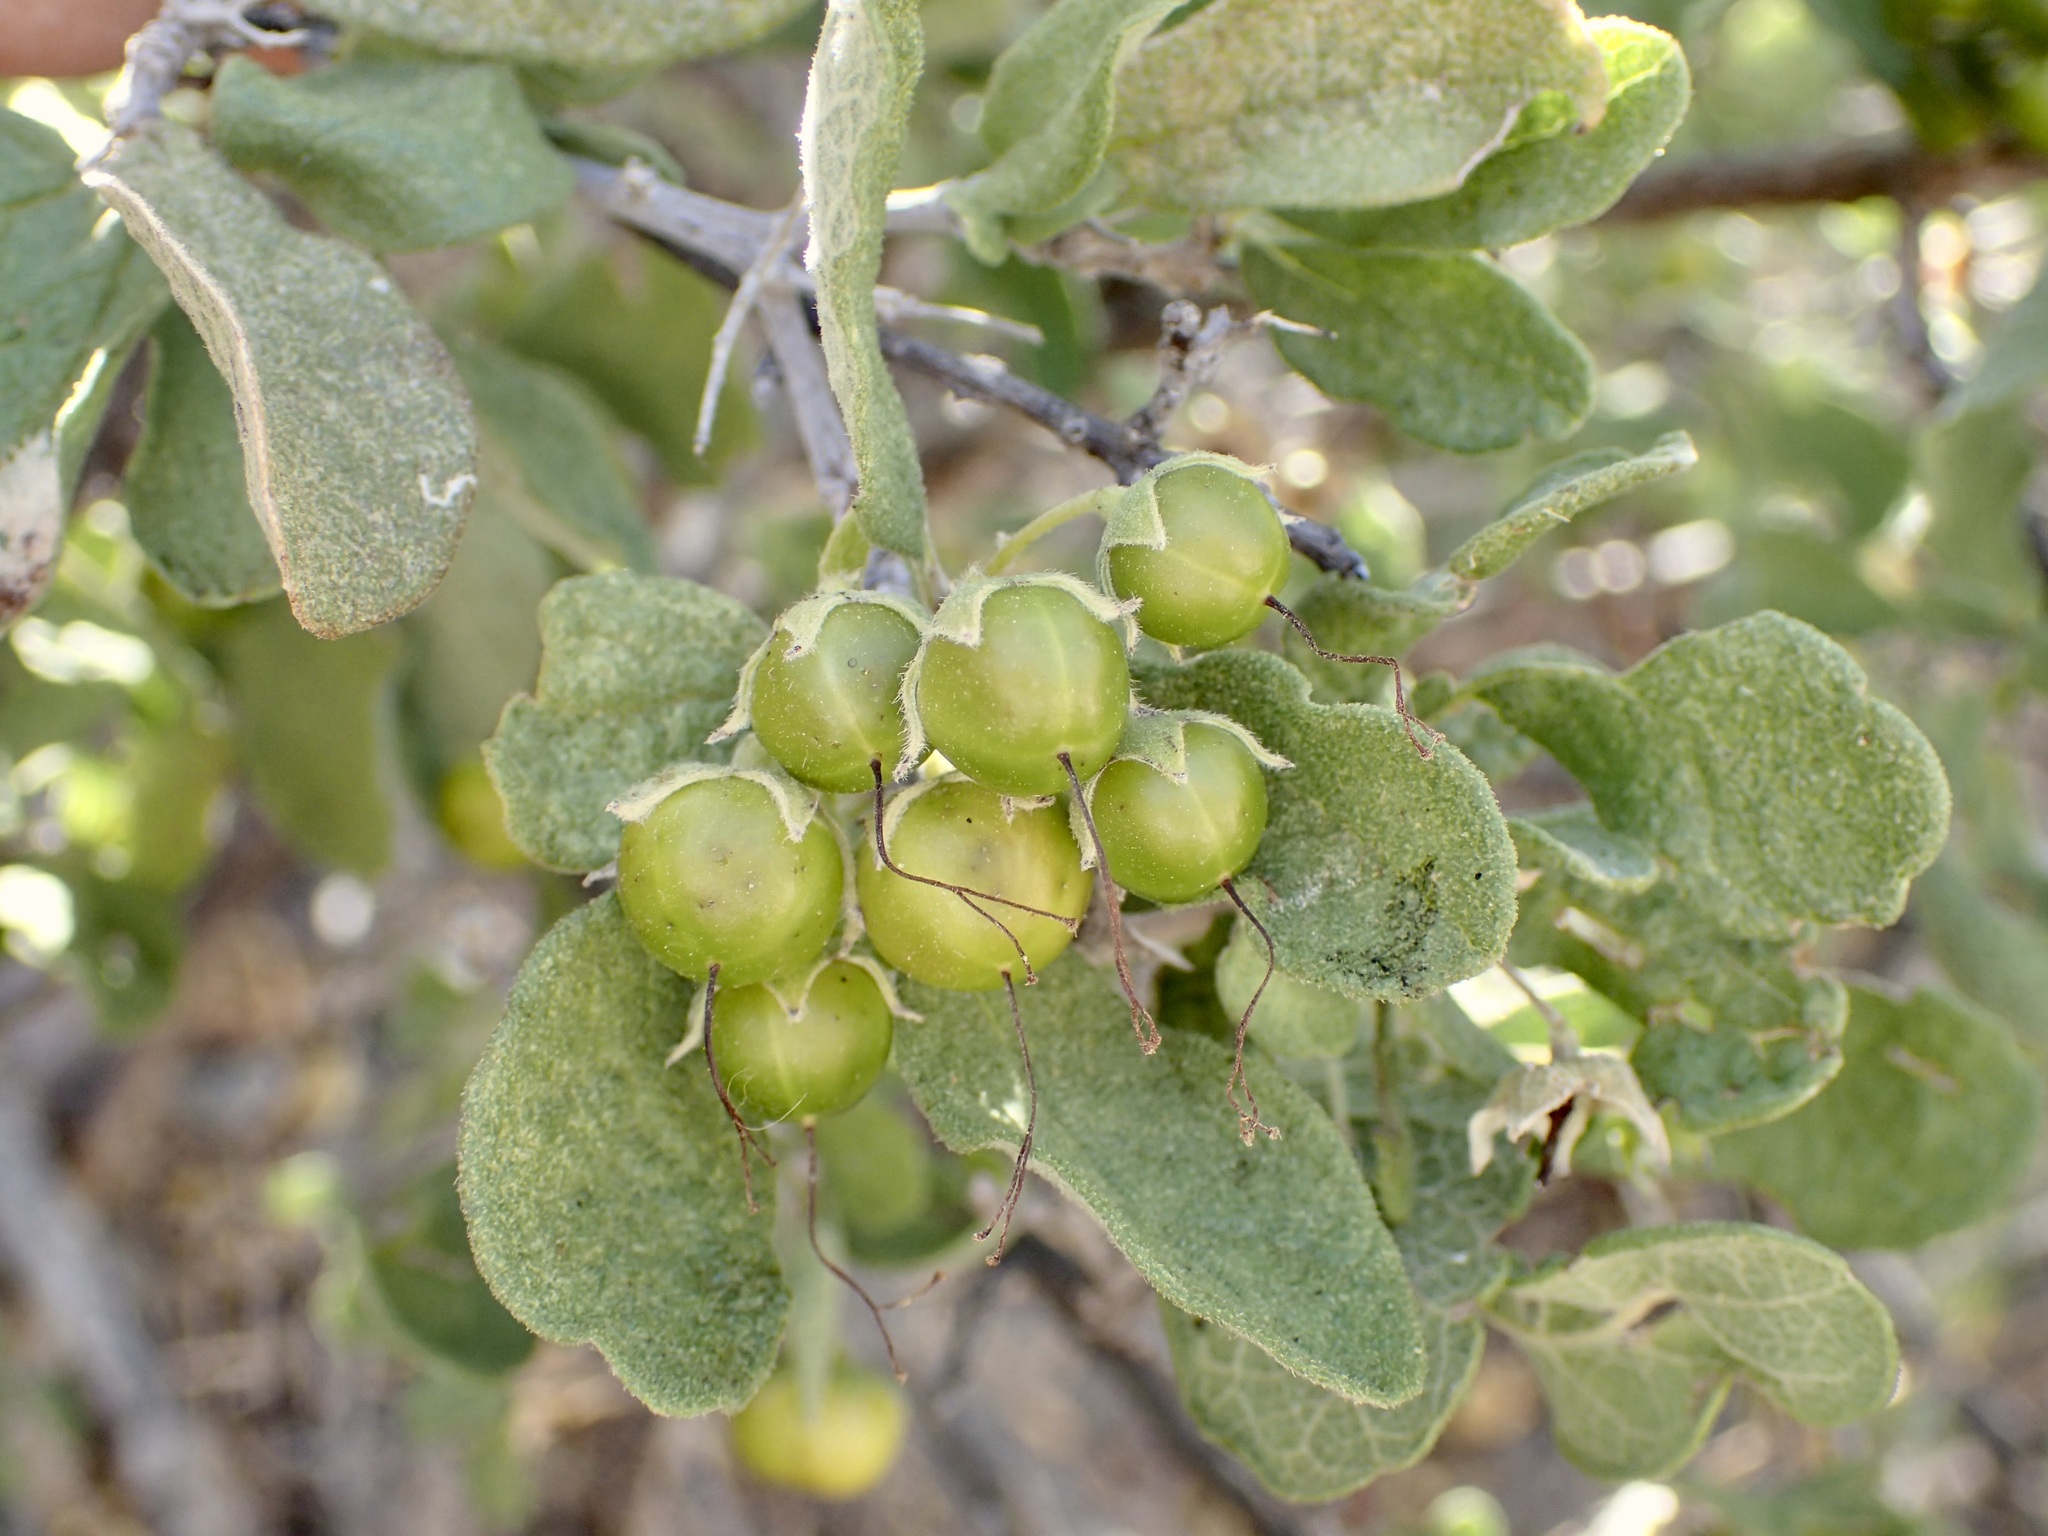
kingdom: Plantae
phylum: Tracheophyta
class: Magnoliopsida
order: Boraginales
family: Ehretiaceae
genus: Bourreria
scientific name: Bourreria sonorae
